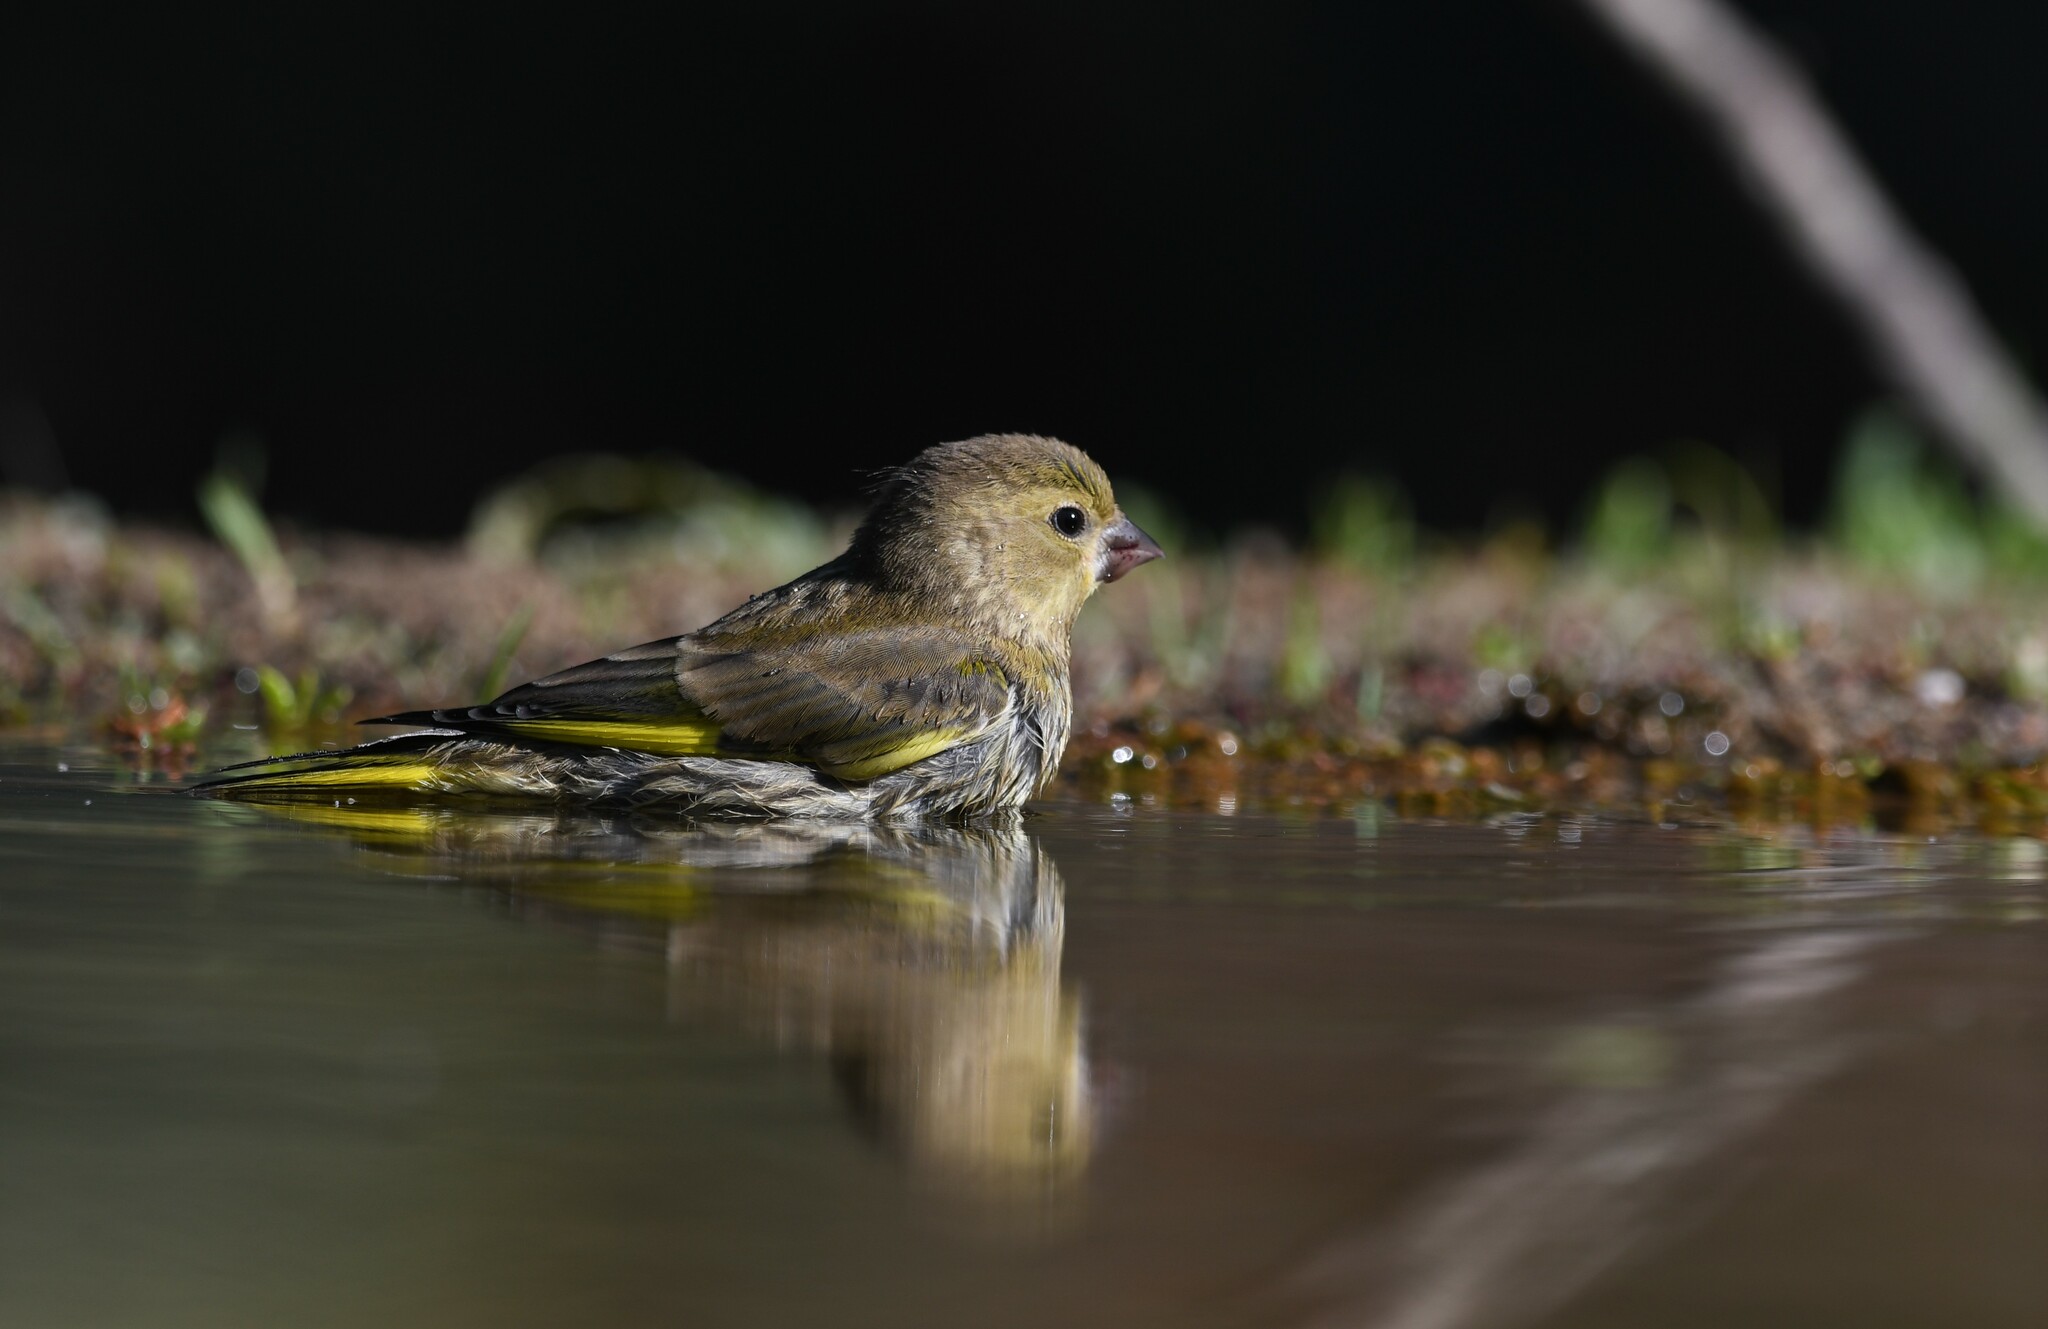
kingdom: Plantae
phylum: Tracheophyta
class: Liliopsida
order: Poales
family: Poaceae
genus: Chloris
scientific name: Chloris chloris
